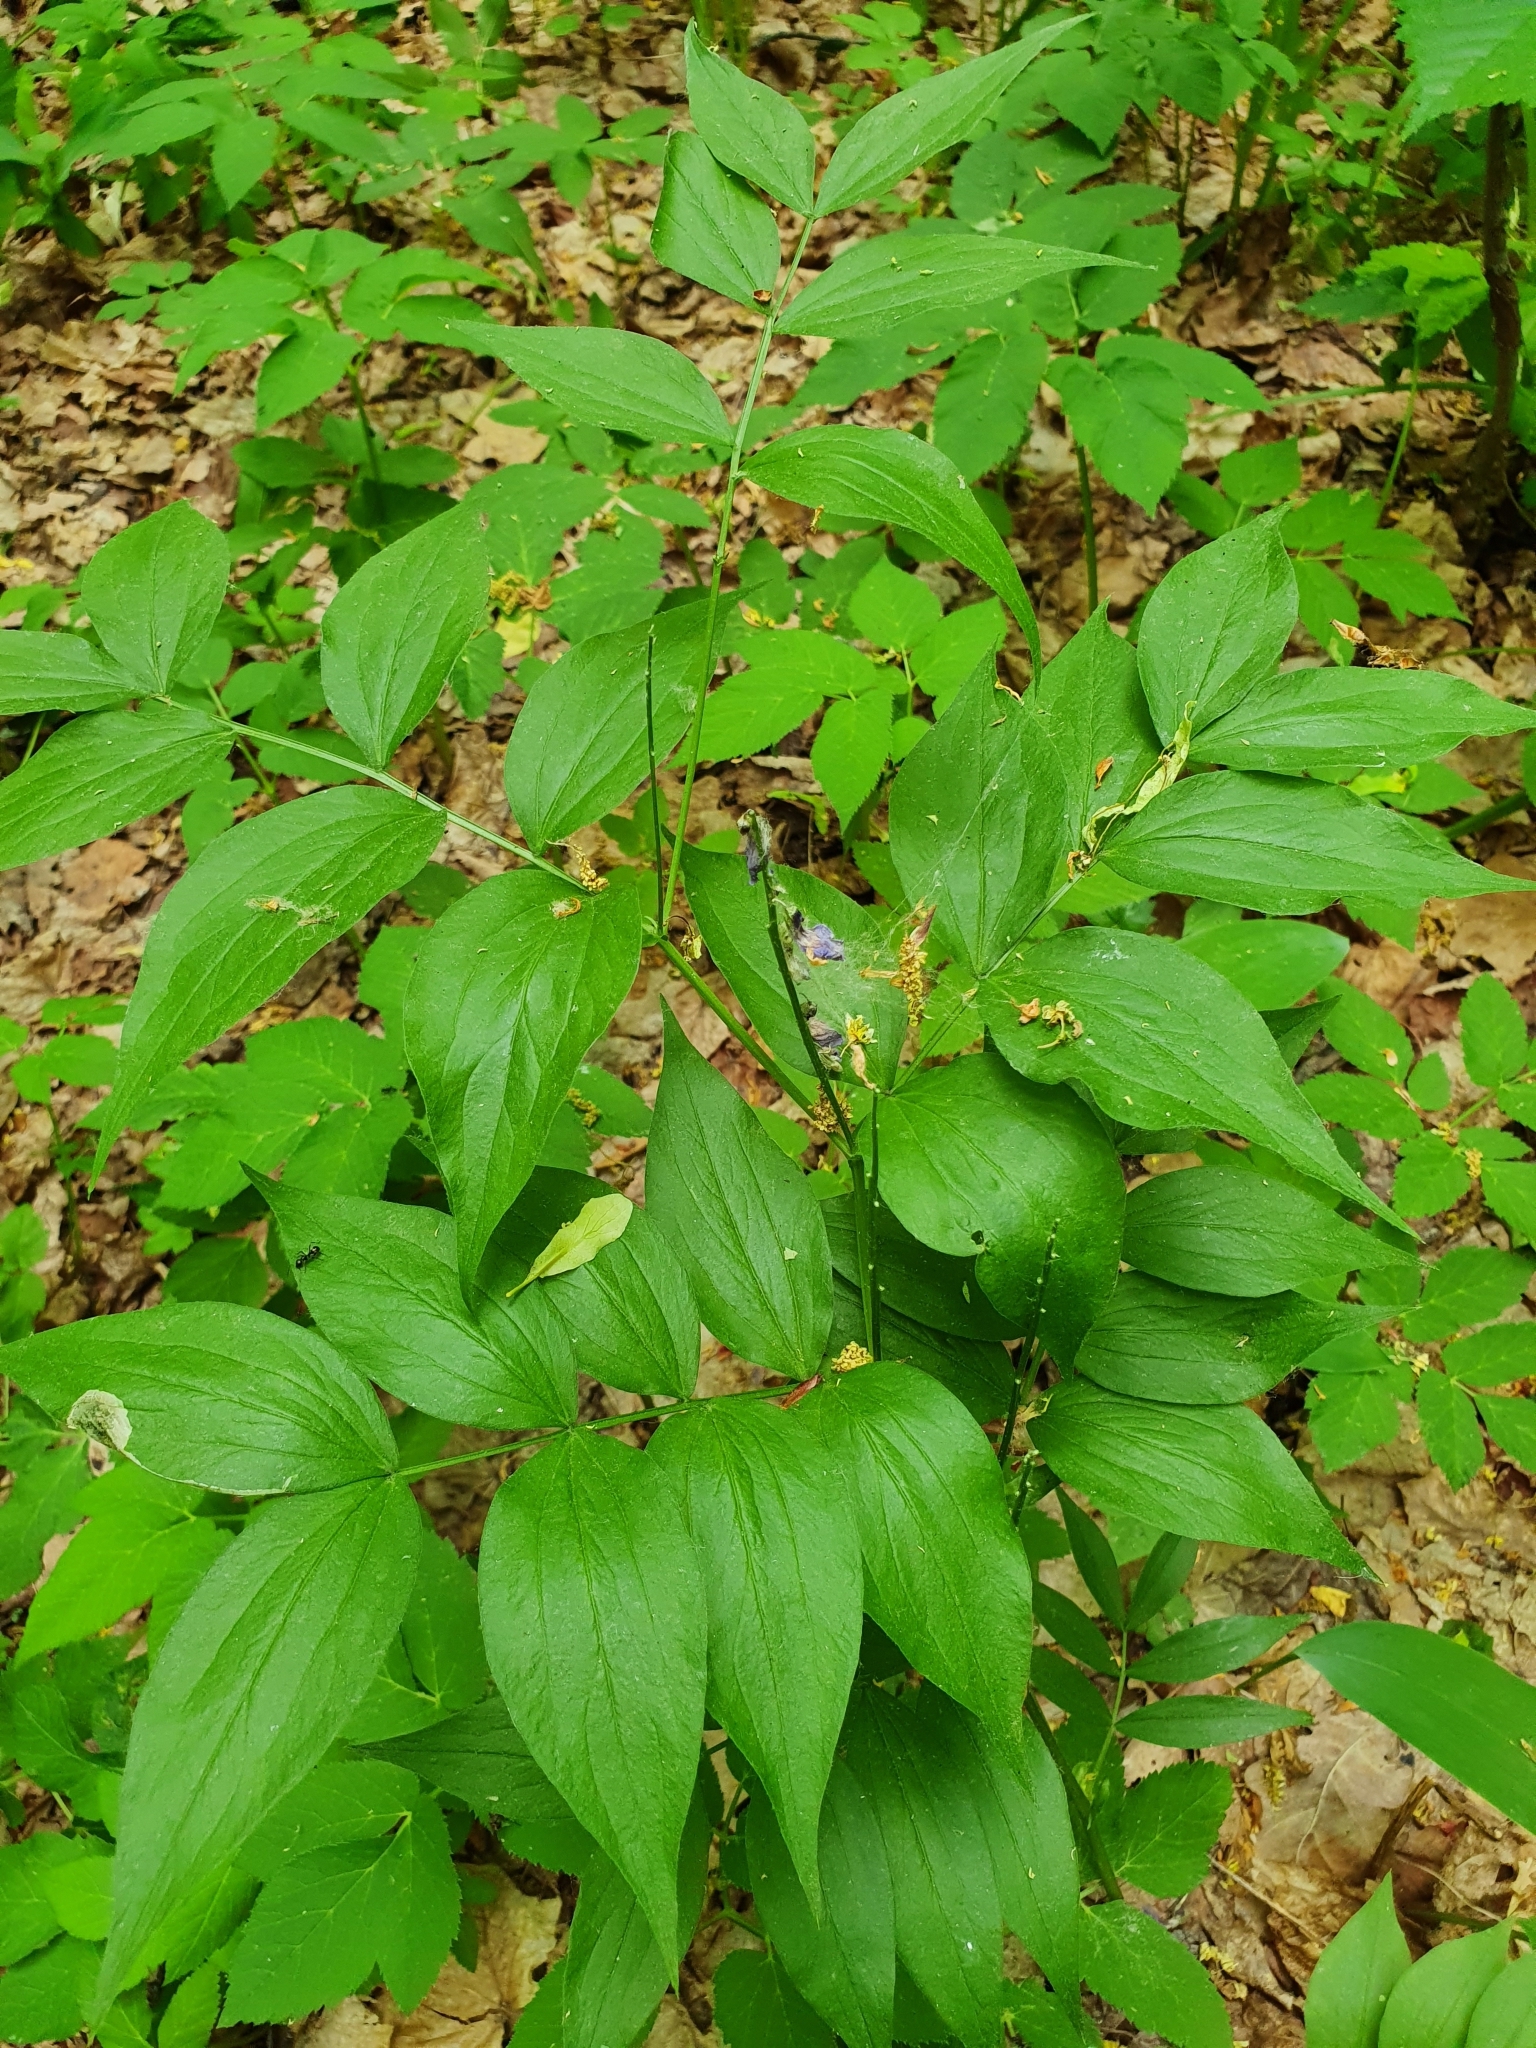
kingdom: Plantae
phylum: Tracheophyta
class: Magnoliopsida
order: Fabales
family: Fabaceae
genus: Lathyrus
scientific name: Lathyrus vernus
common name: Spring pea
